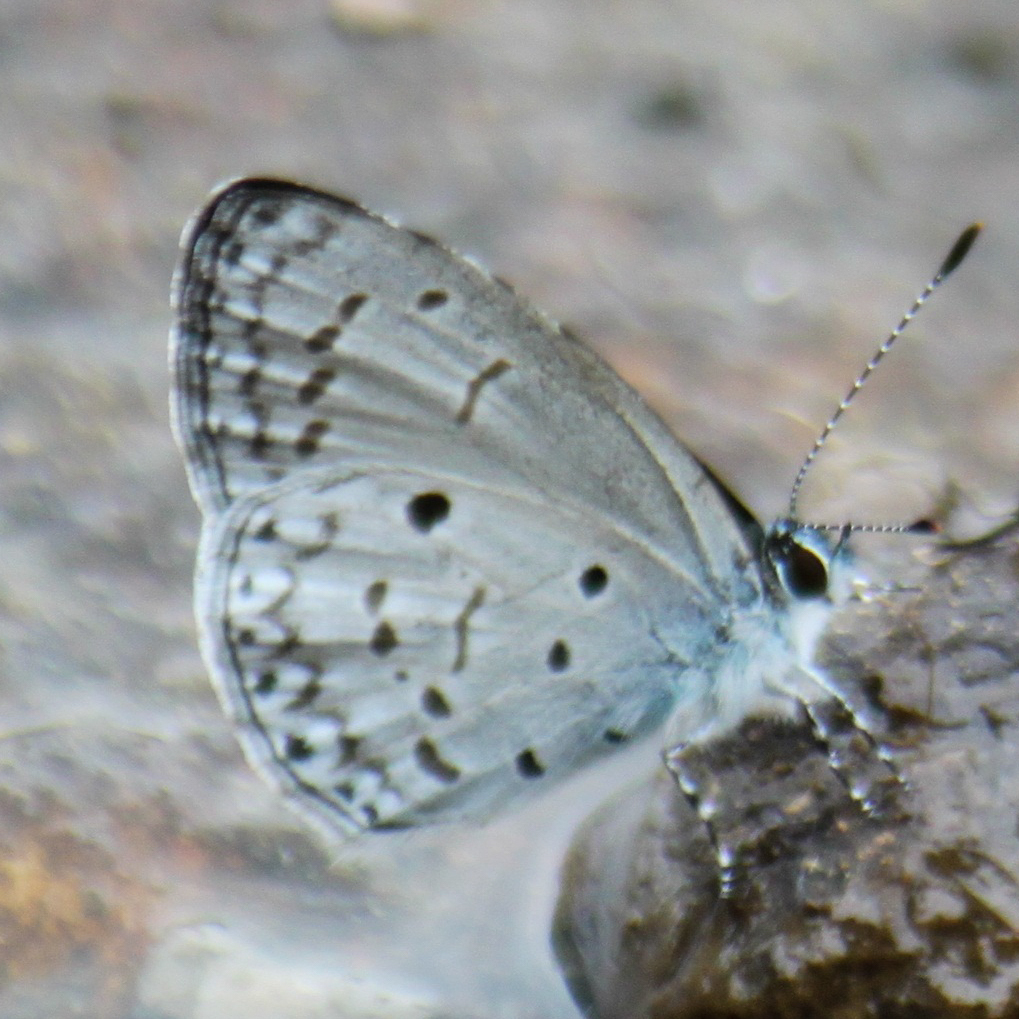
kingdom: Animalia
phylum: Arthropoda
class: Insecta
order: Lepidoptera
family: Lycaenidae
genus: Celastrina
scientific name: Celastrina lavendularis
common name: Plain hedge blue
